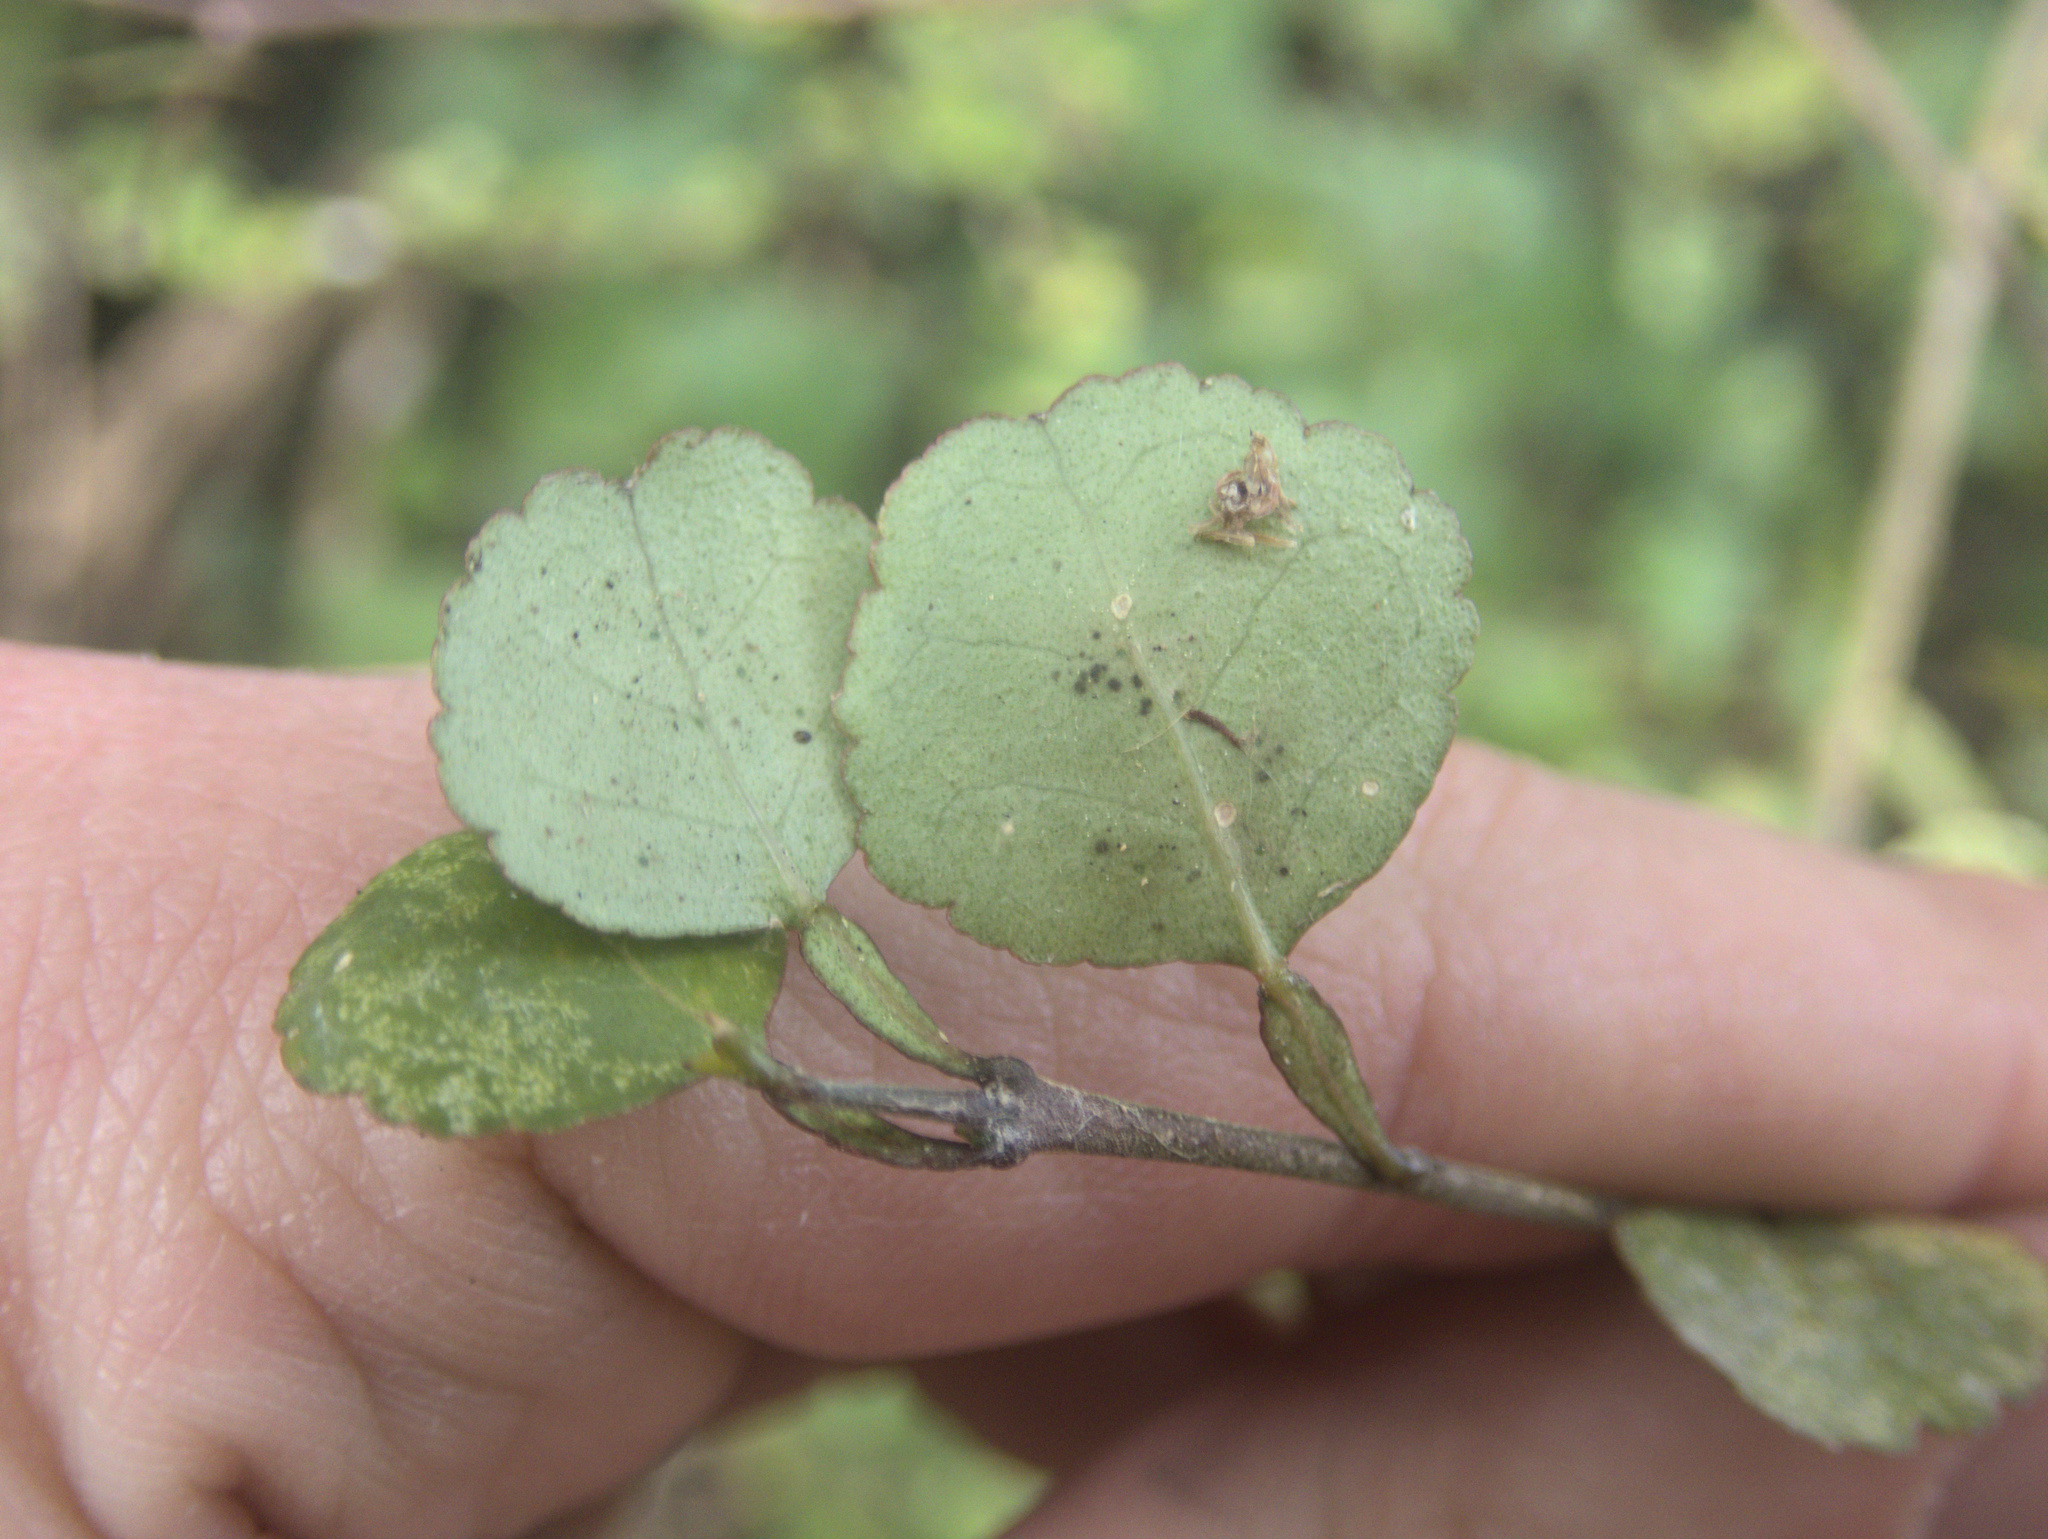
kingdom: Plantae
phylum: Tracheophyta
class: Magnoliopsida
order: Sapindales
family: Rutaceae
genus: Melicope
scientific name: Melicope simplex
